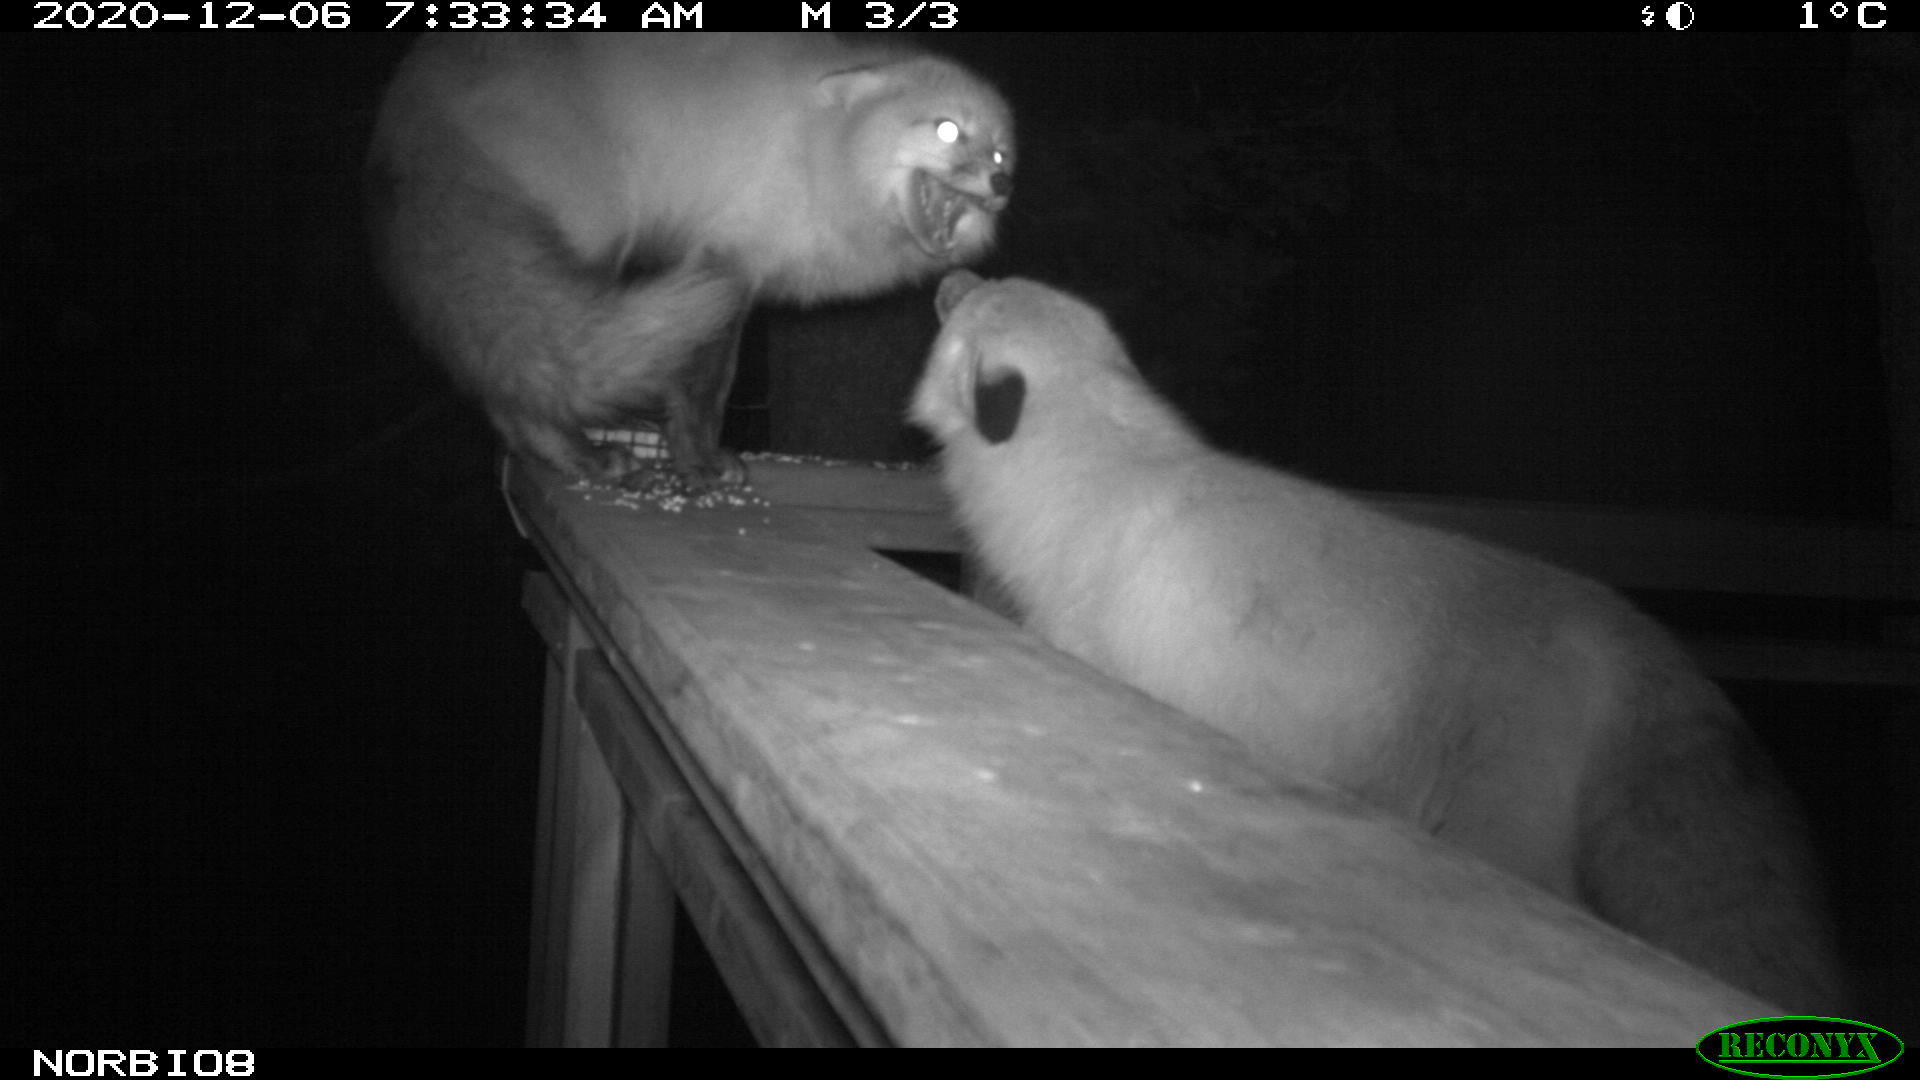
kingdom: Animalia
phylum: Chordata
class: Mammalia
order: Carnivora
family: Canidae
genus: Vulpes
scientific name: Vulpes vulpes
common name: Red fox
